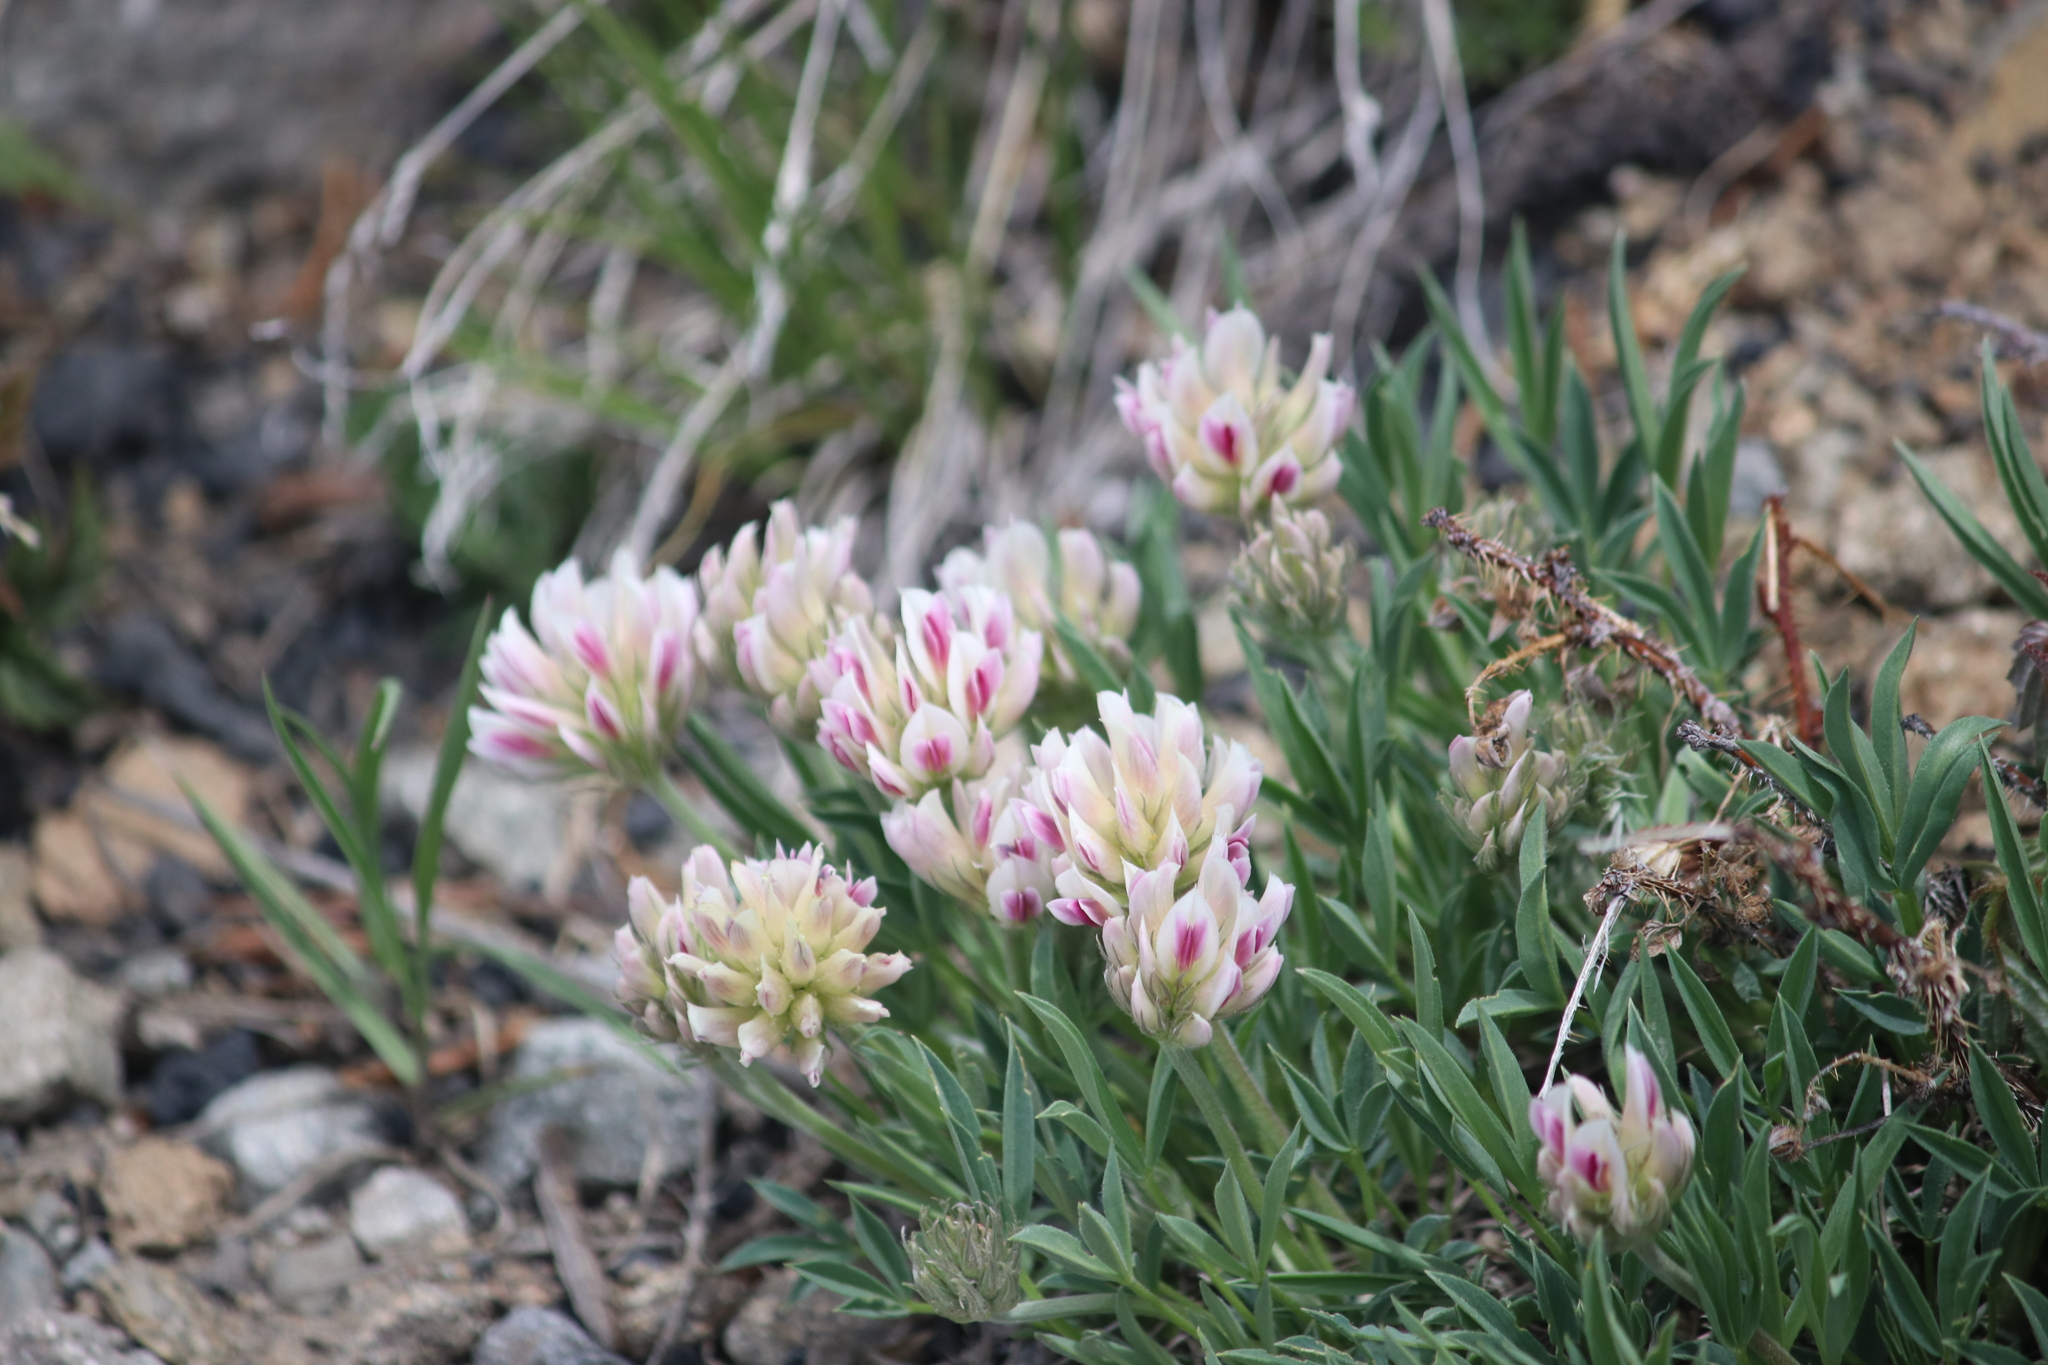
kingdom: Plantae
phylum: Tracheophyta
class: Magnoliopsida
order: Fabales
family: Fabaceae
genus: Trifolium
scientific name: Trifolium dasyphyllum
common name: Whip-root clover
